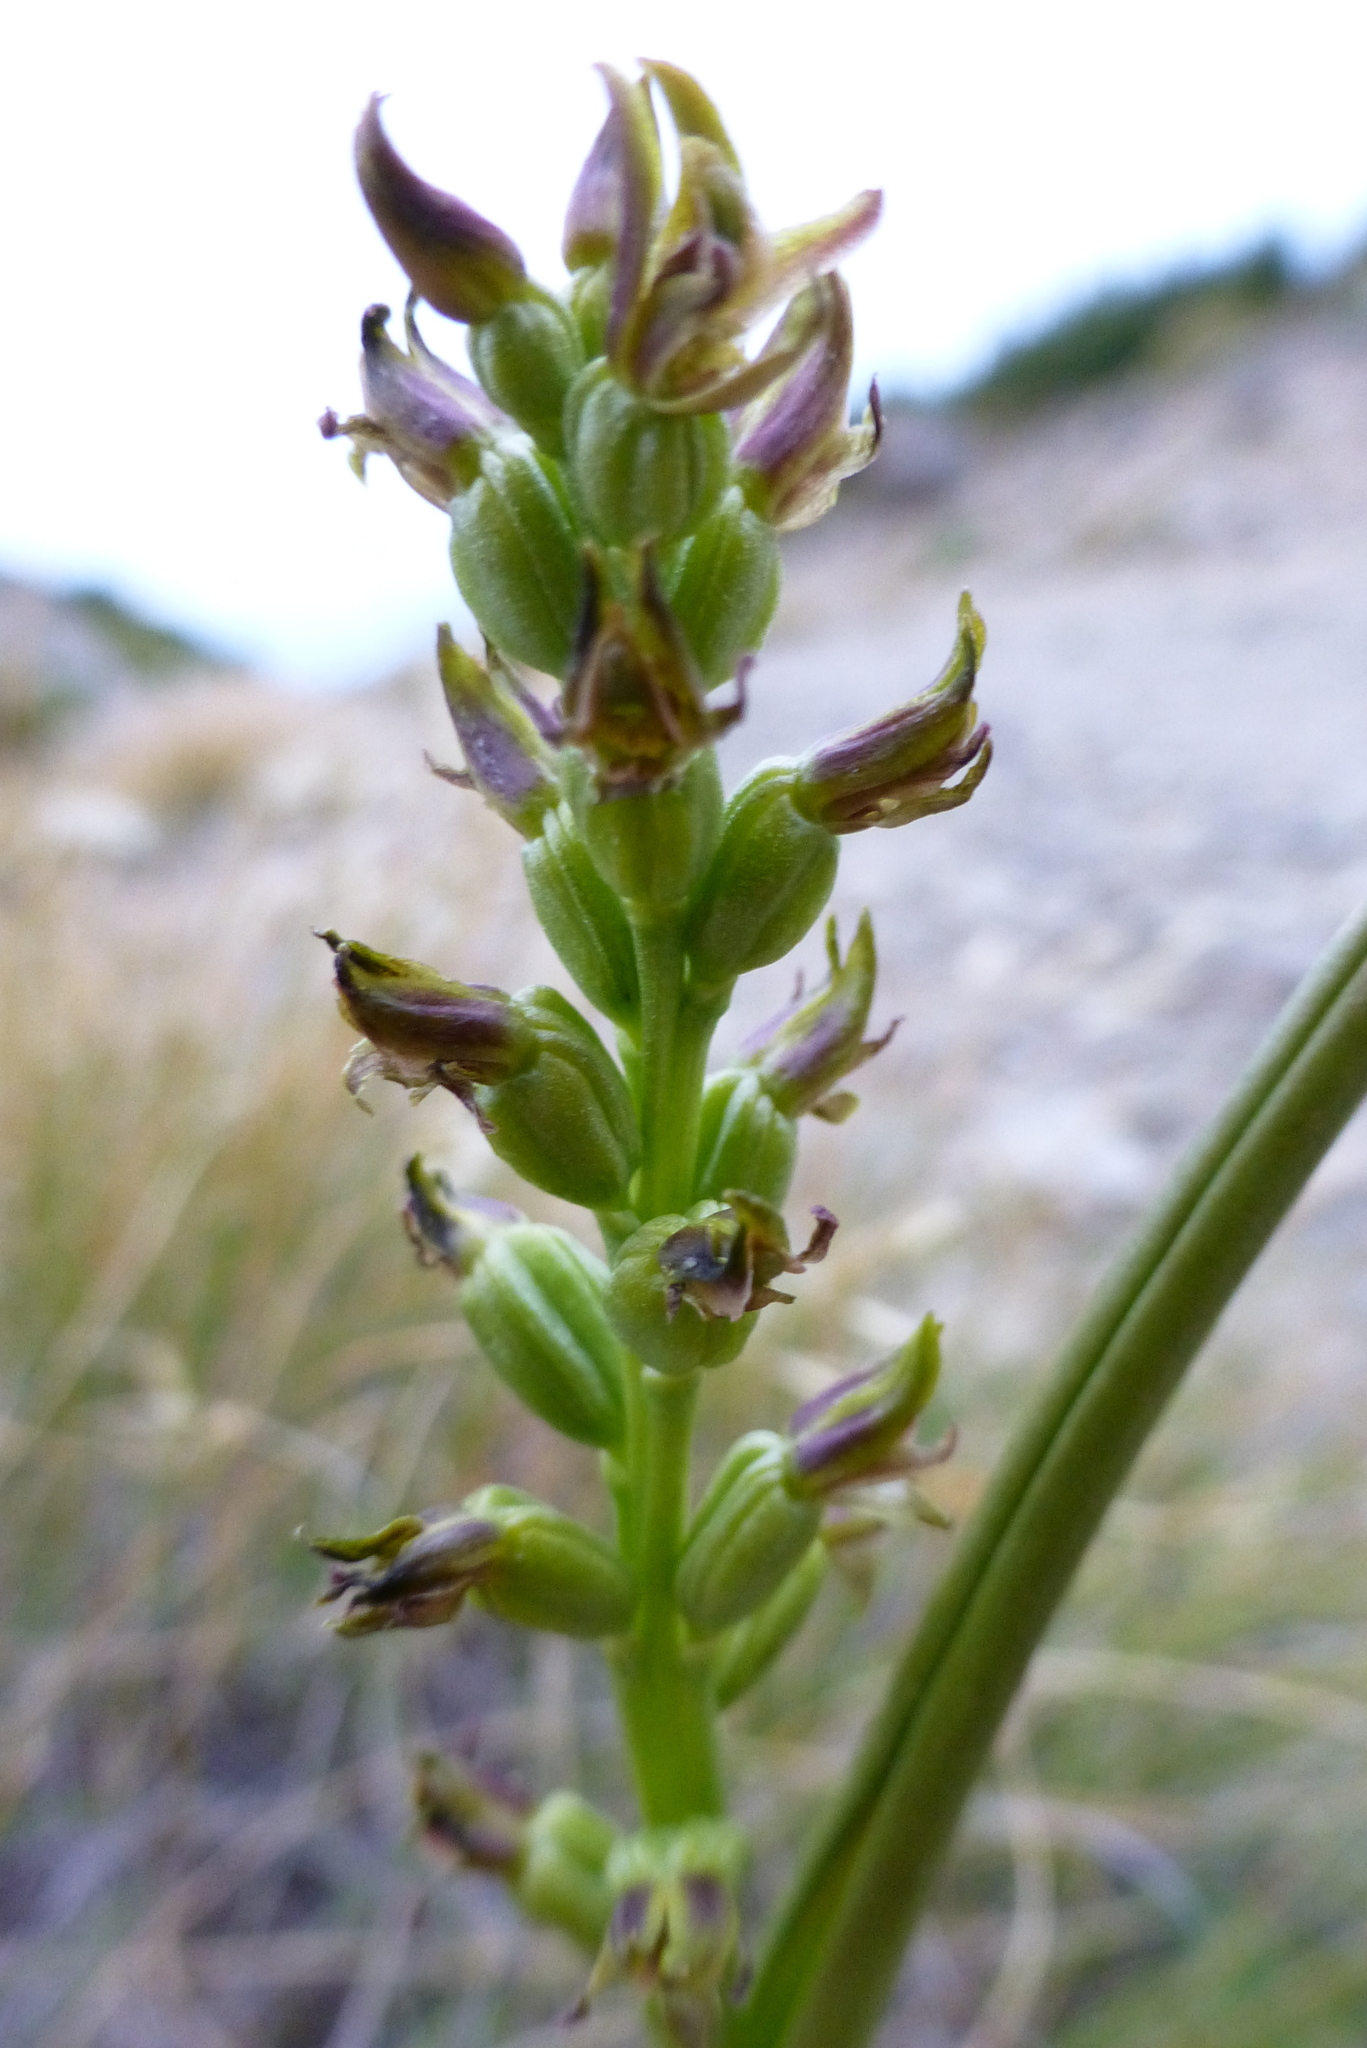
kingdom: Plantae
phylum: Tracheophyta
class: Liliopsida
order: Asparagales
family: Orchidaceae
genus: Prasophyllum
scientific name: Prasophyllum colensoi
